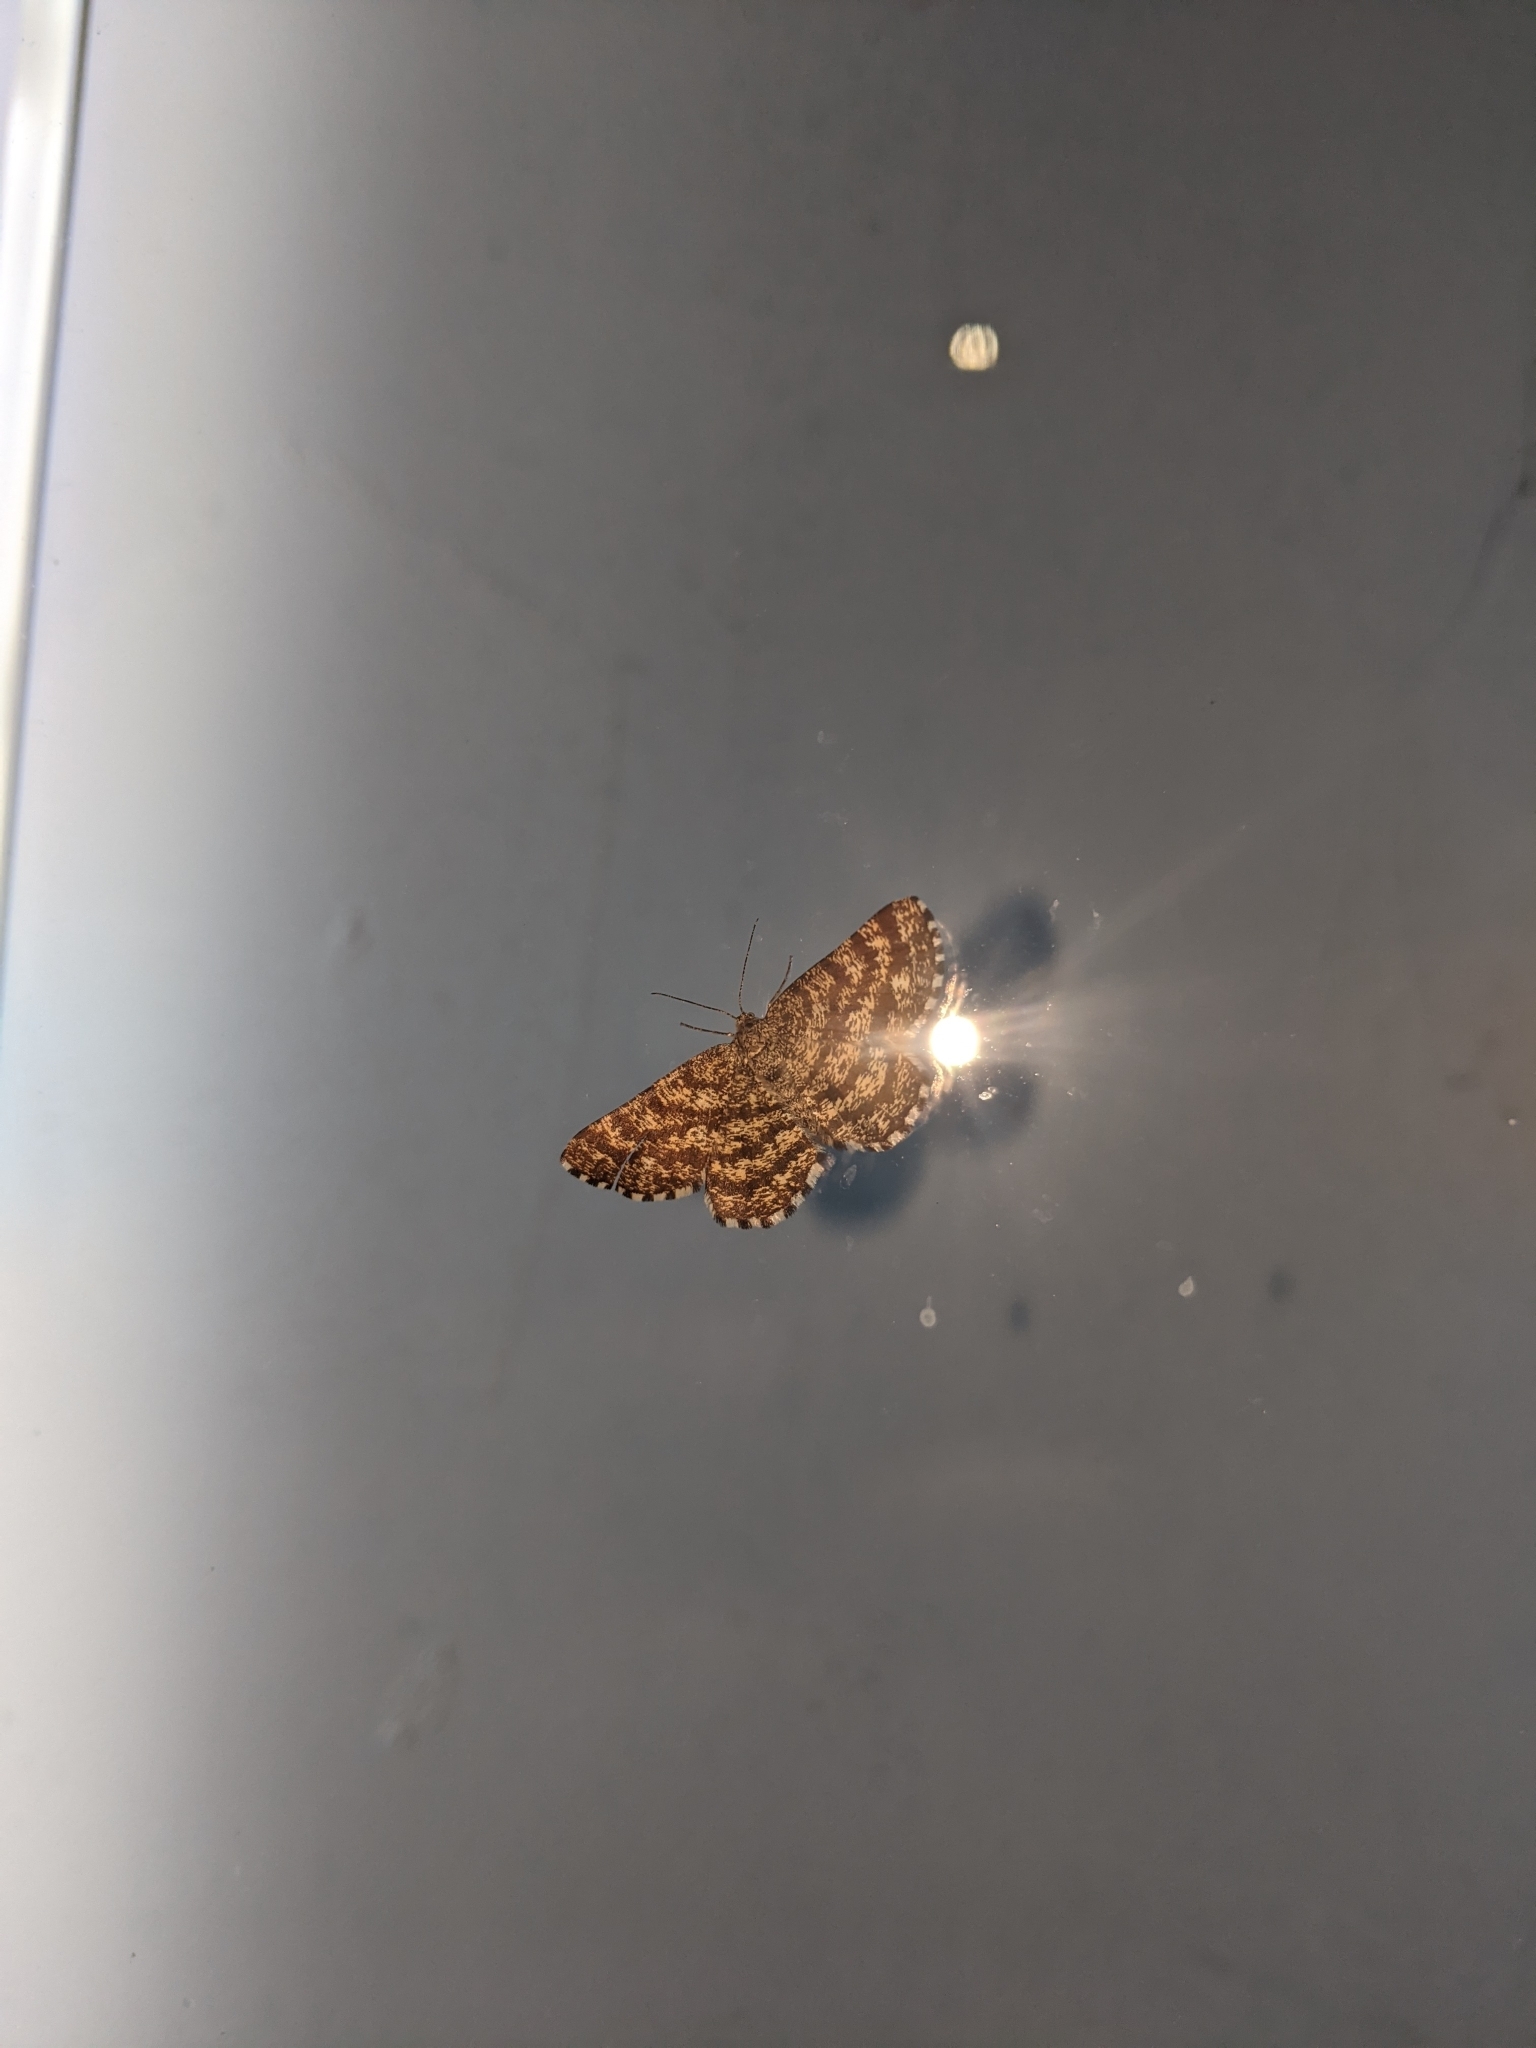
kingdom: Animalia
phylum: Arthropoda
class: Insecta
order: Lepidoptera
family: Geometridae
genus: Ematurga
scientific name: Ematurga atomaria
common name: Common heath
